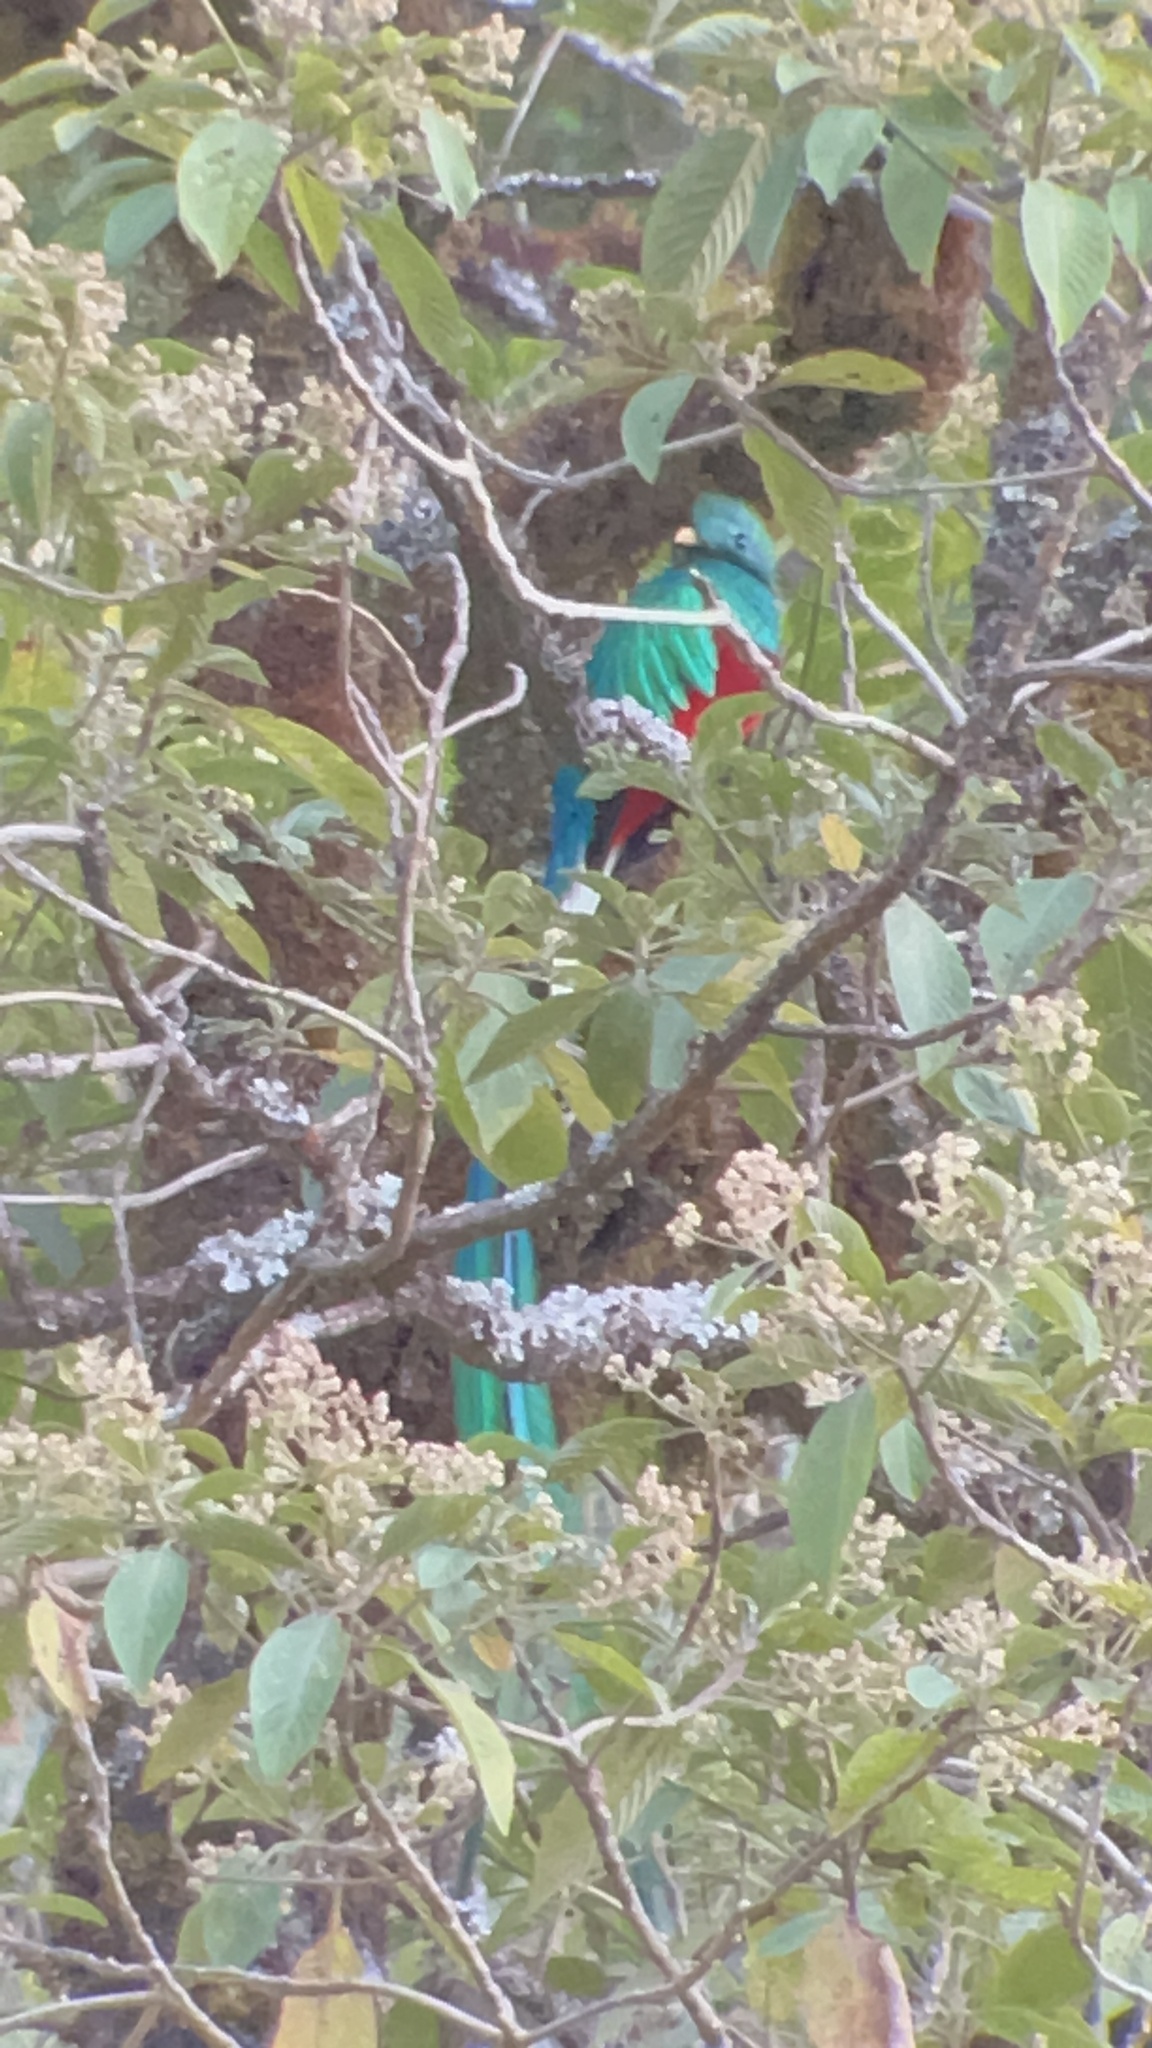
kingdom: Animalia
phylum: Chordata
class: Aves
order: Trogoniformes
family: Trogonidae
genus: Pharomachrus
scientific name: Pharomachrus mocinno
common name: Resplendent quetzal
